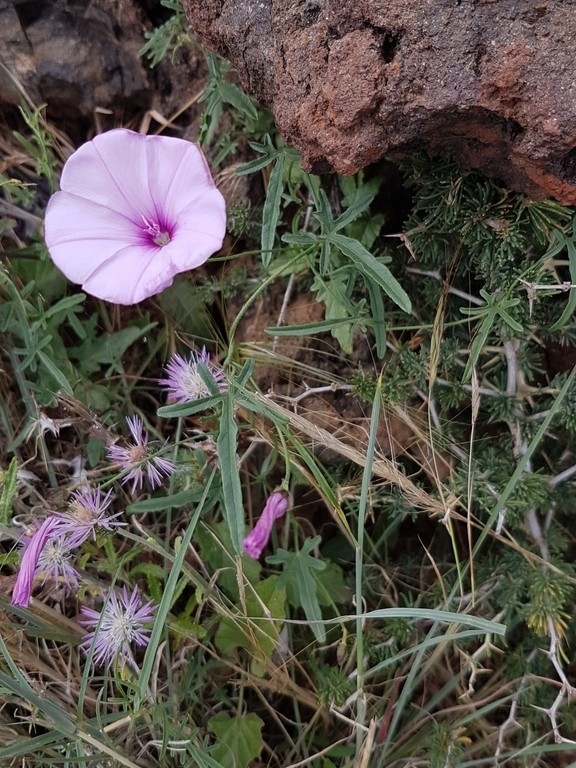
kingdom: Plantae
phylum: Tracheophyta
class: Magnoliopsida
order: Solanales
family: Convolvulaceae
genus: Convolvulus
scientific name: Convolvulus althaeoides
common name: Mallow bindweed
